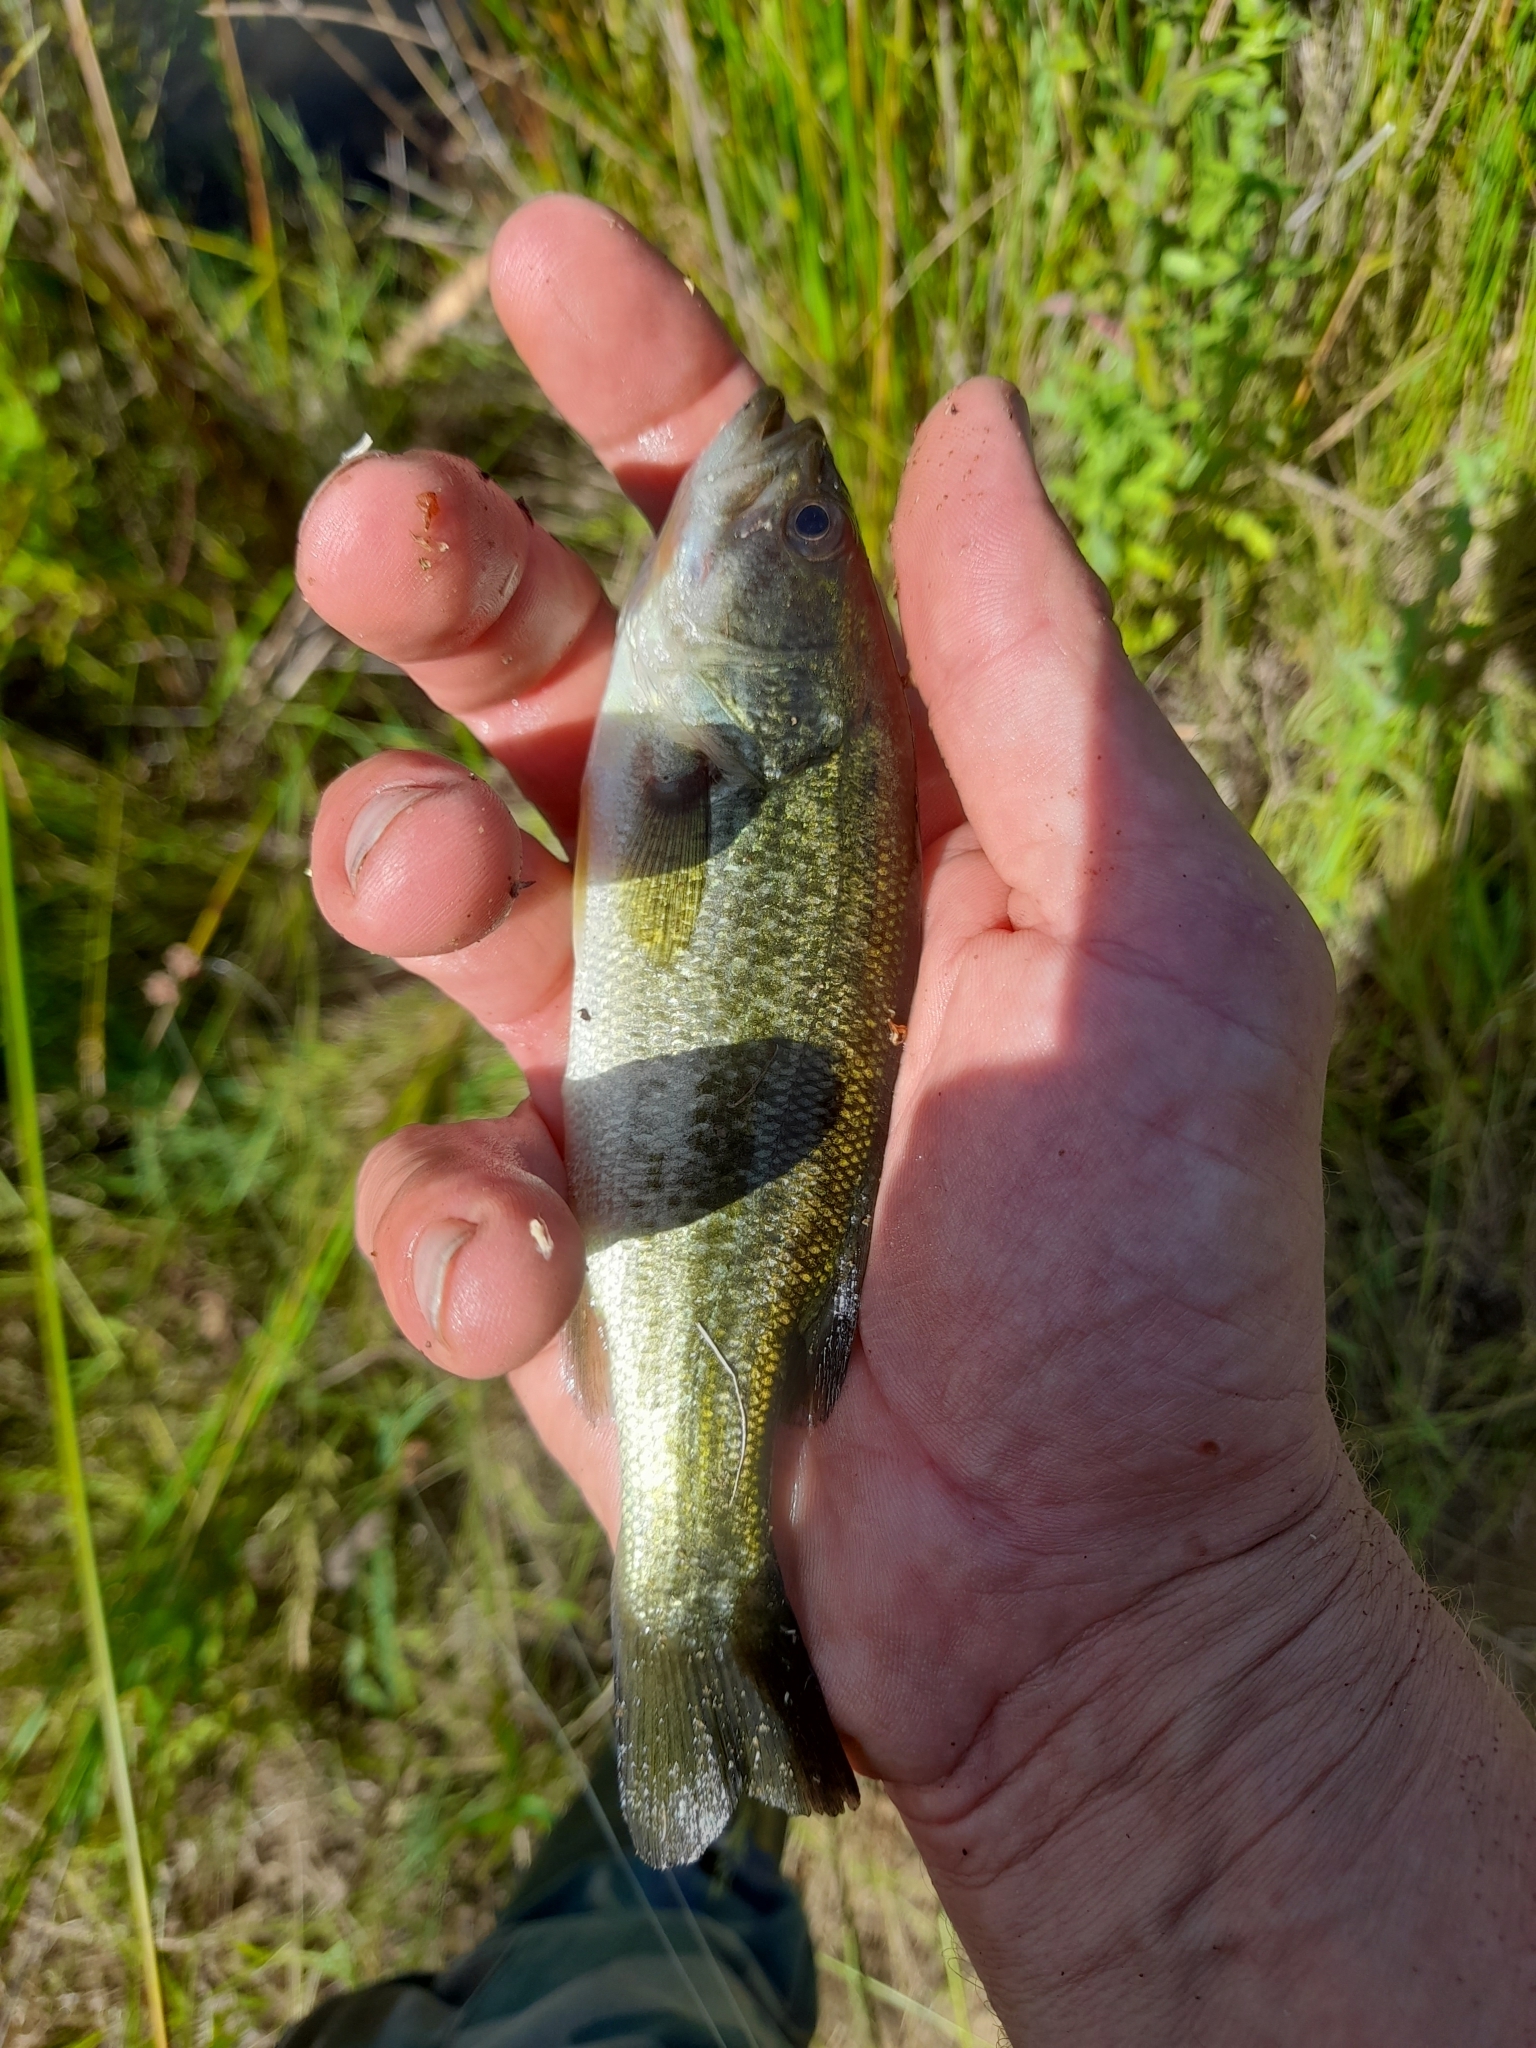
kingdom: Animalia
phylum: Chordata
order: Perciformes
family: Centrarchidae
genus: Micropterus
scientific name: Micropterus
